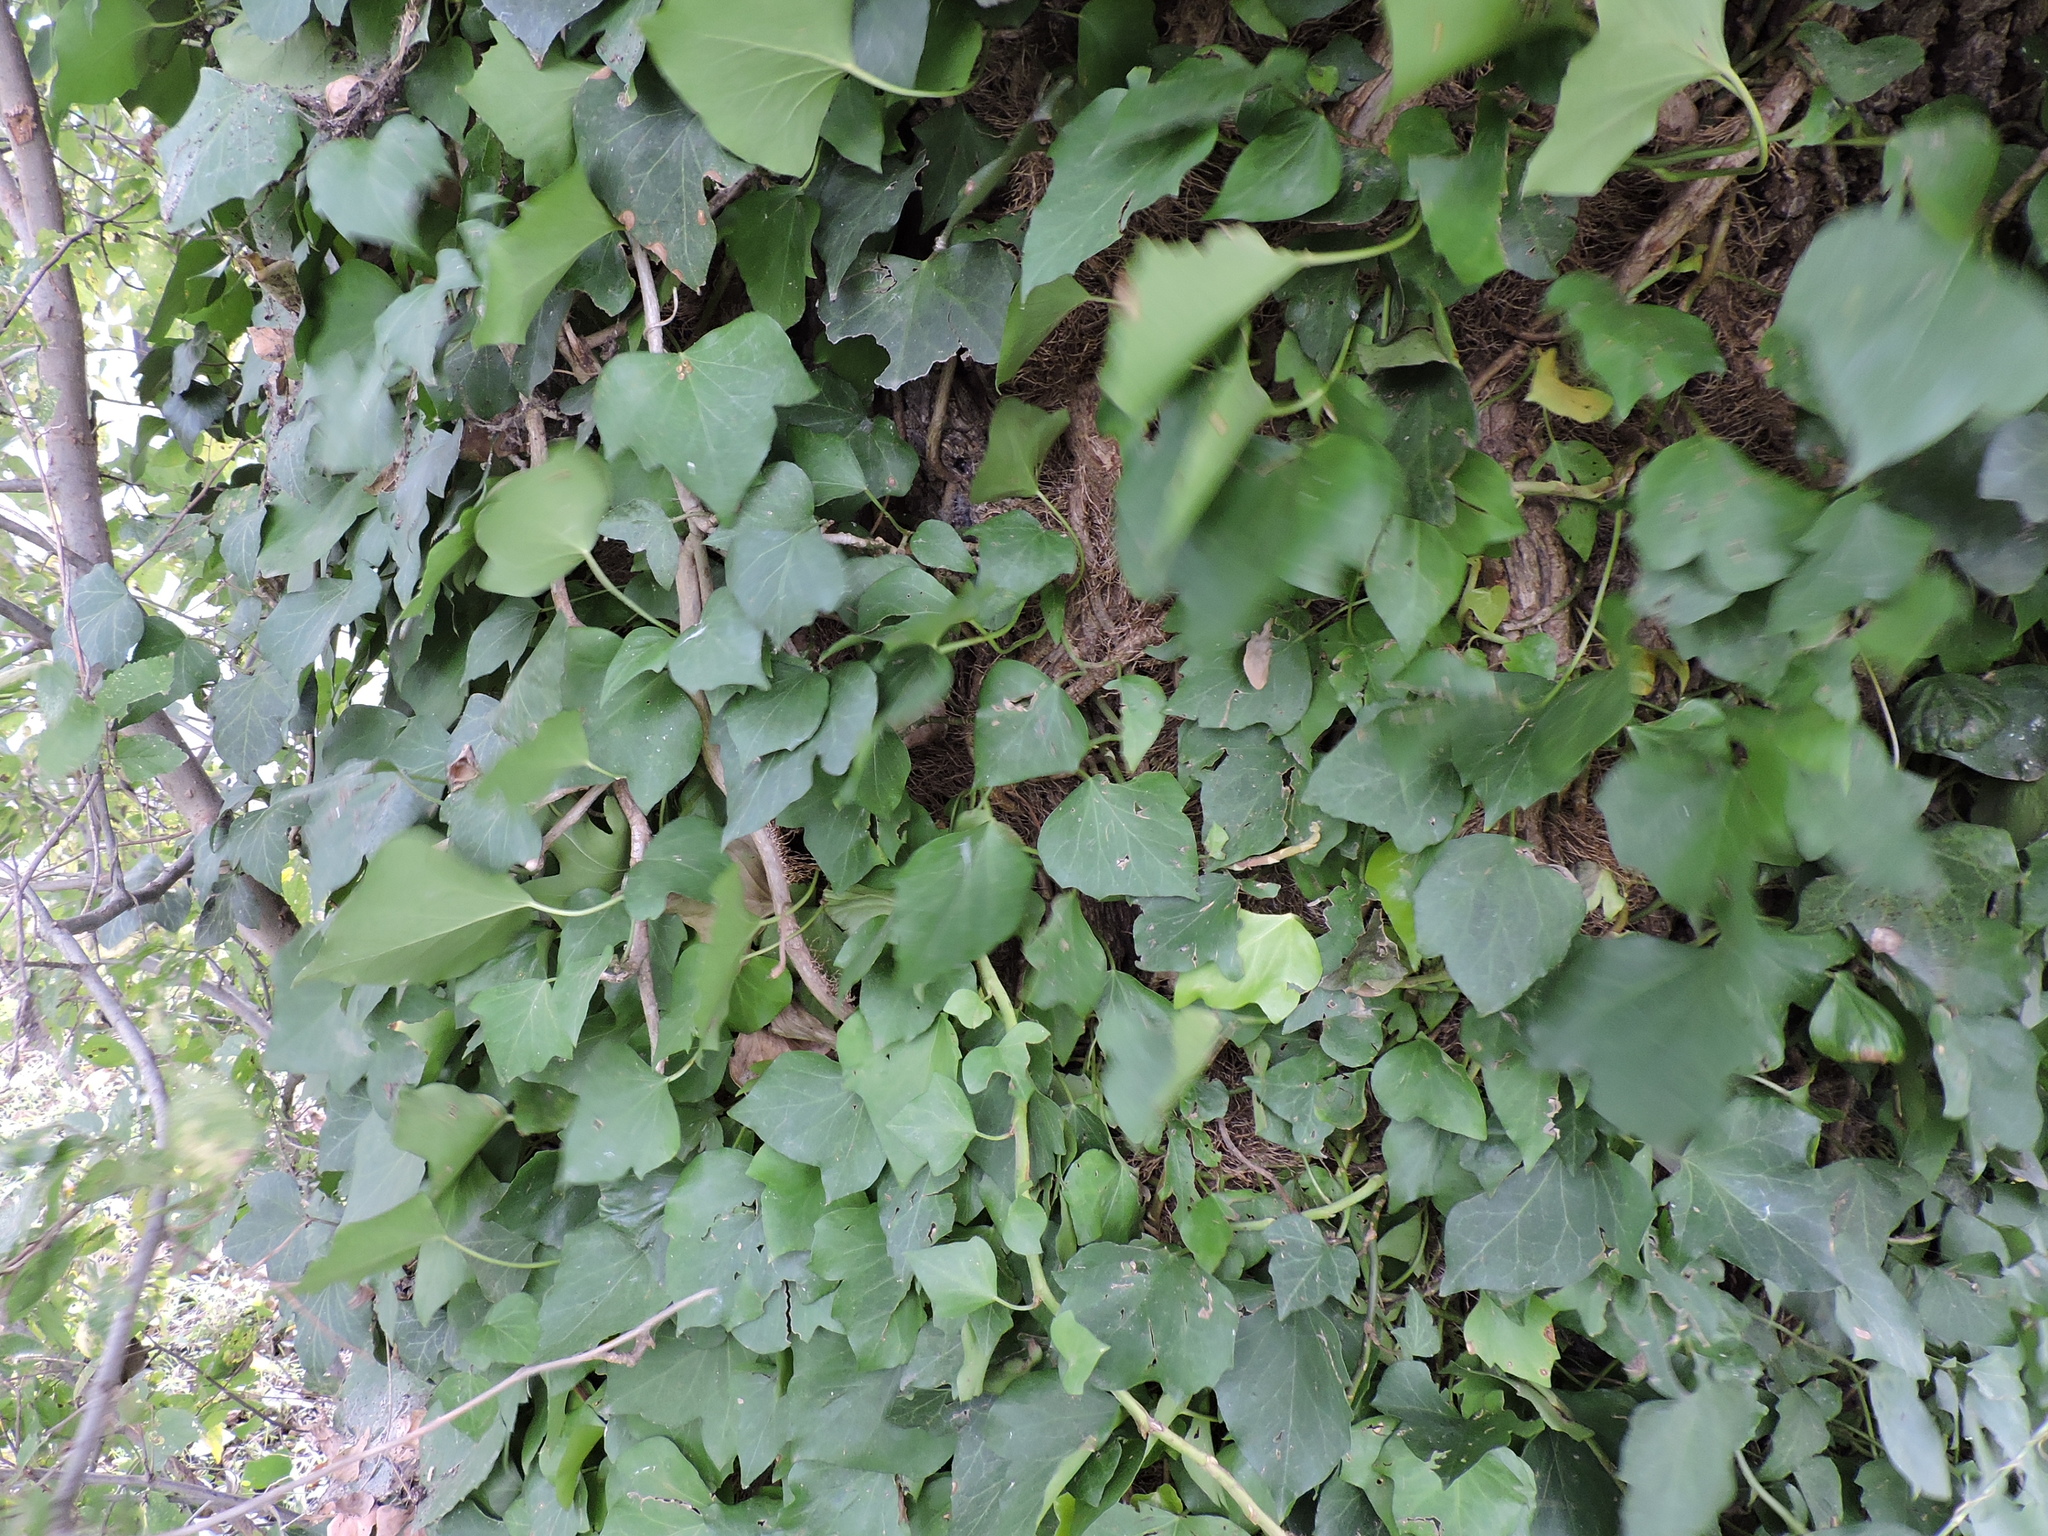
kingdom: Plantae
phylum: Tracheophyta
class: Magnoliopsida
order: Apiales
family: Araliaceae
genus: Hedera
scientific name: Hedera helix
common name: Ivy
